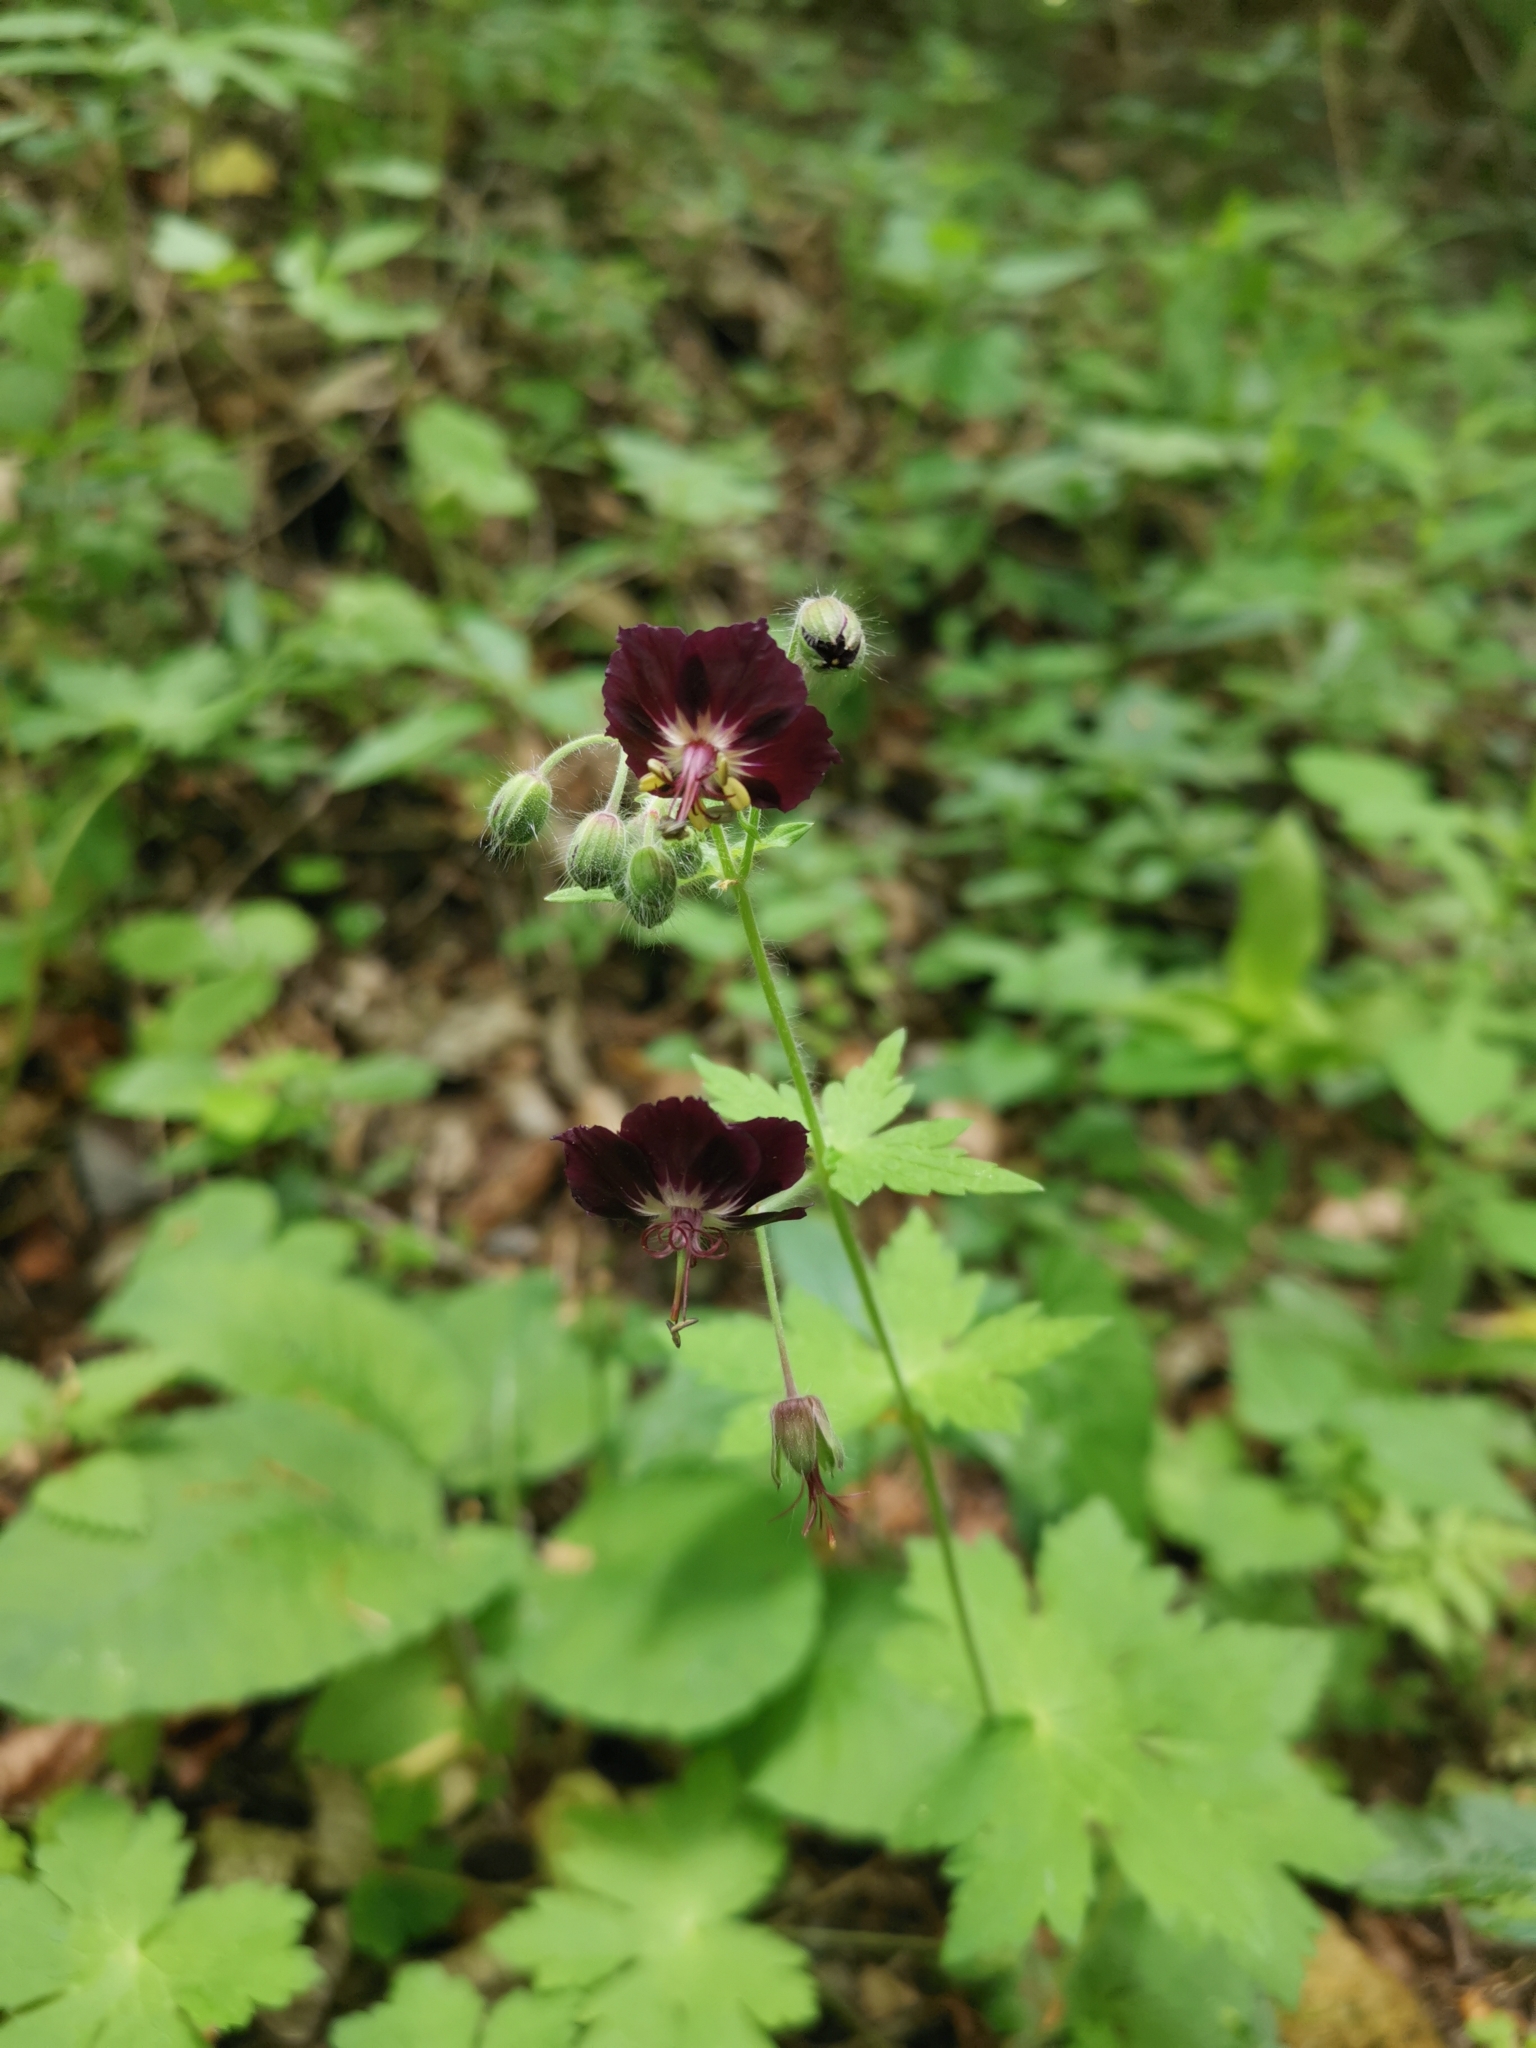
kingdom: Plantae
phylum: Tracheophyta
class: Magnoliopsida
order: Geraniales
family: Geraniaceae
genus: Geranium
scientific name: Geranium phaeum
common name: Dusky crane's-bill
